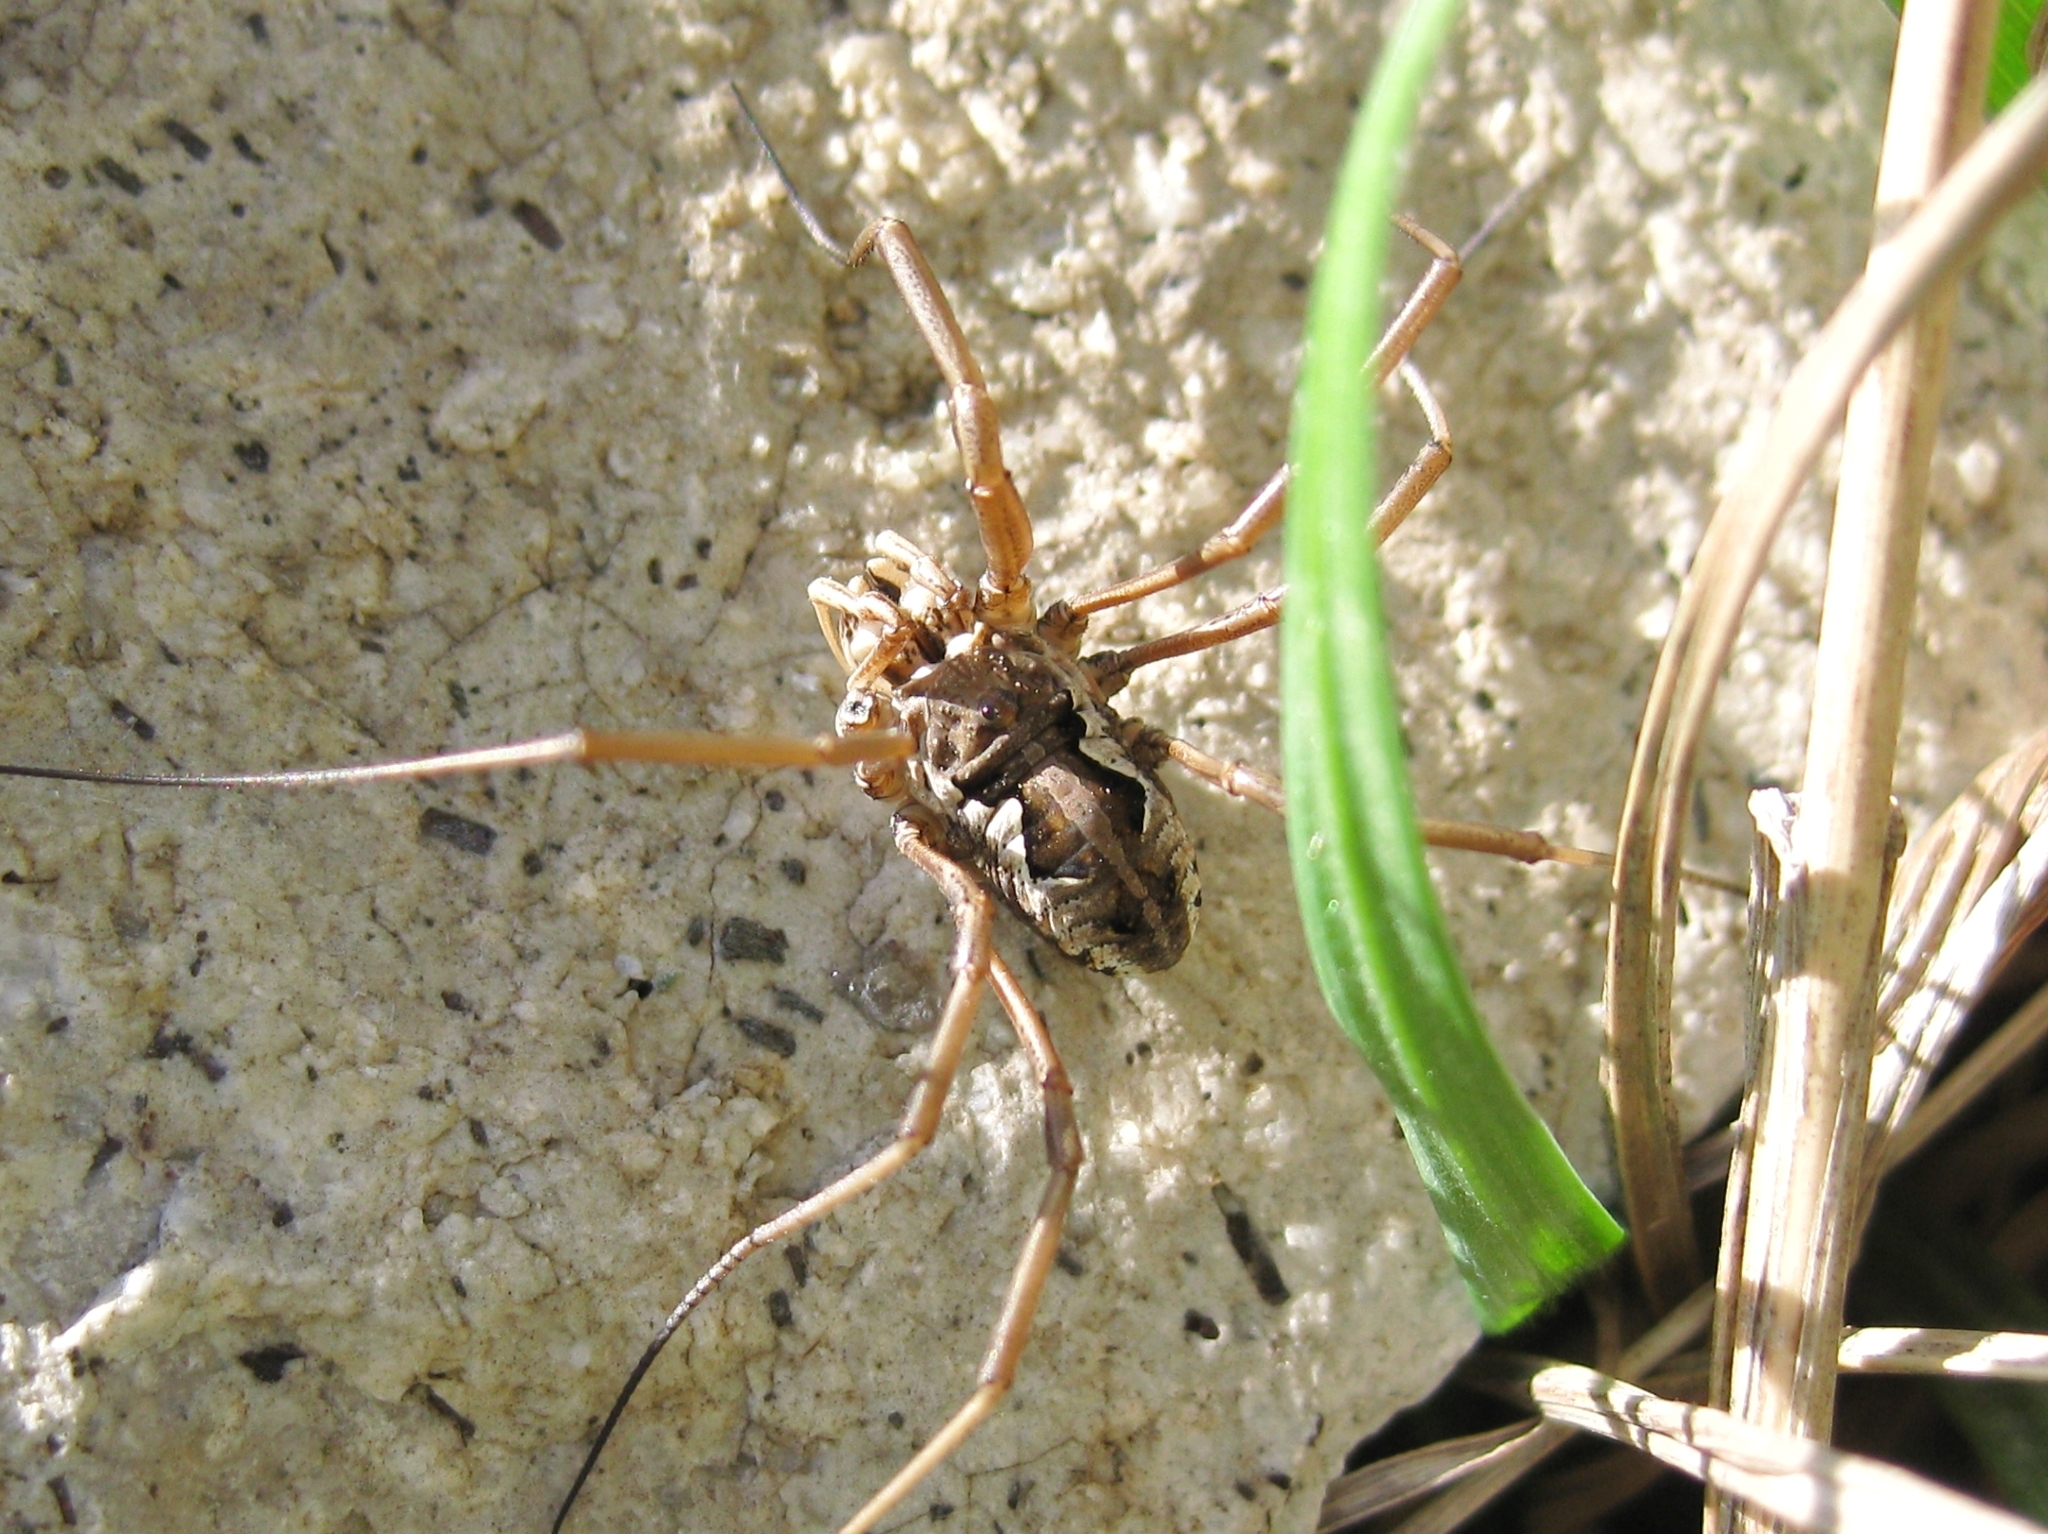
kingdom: Animalia
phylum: Arthropoda
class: Arachnida
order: Opiliones
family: Phalangiidae
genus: Phalangium
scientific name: Phalangium punctipes
